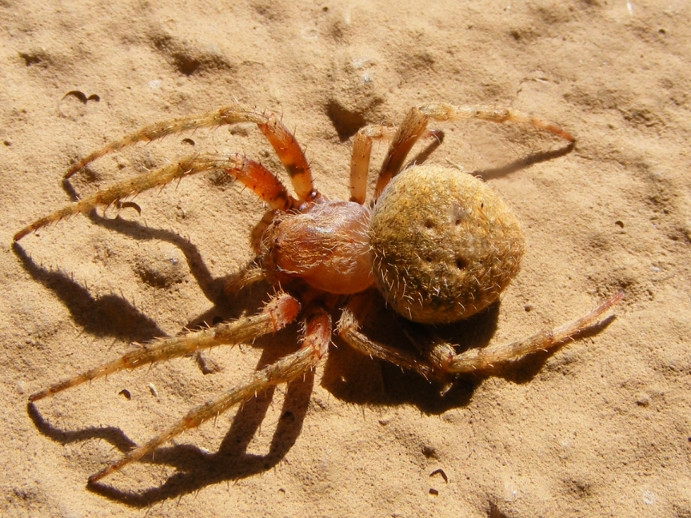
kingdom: Animalia
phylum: Arthropoda
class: Arachnida
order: Araneae
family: Araneidae
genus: Neoscona
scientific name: Neoscona triangula
